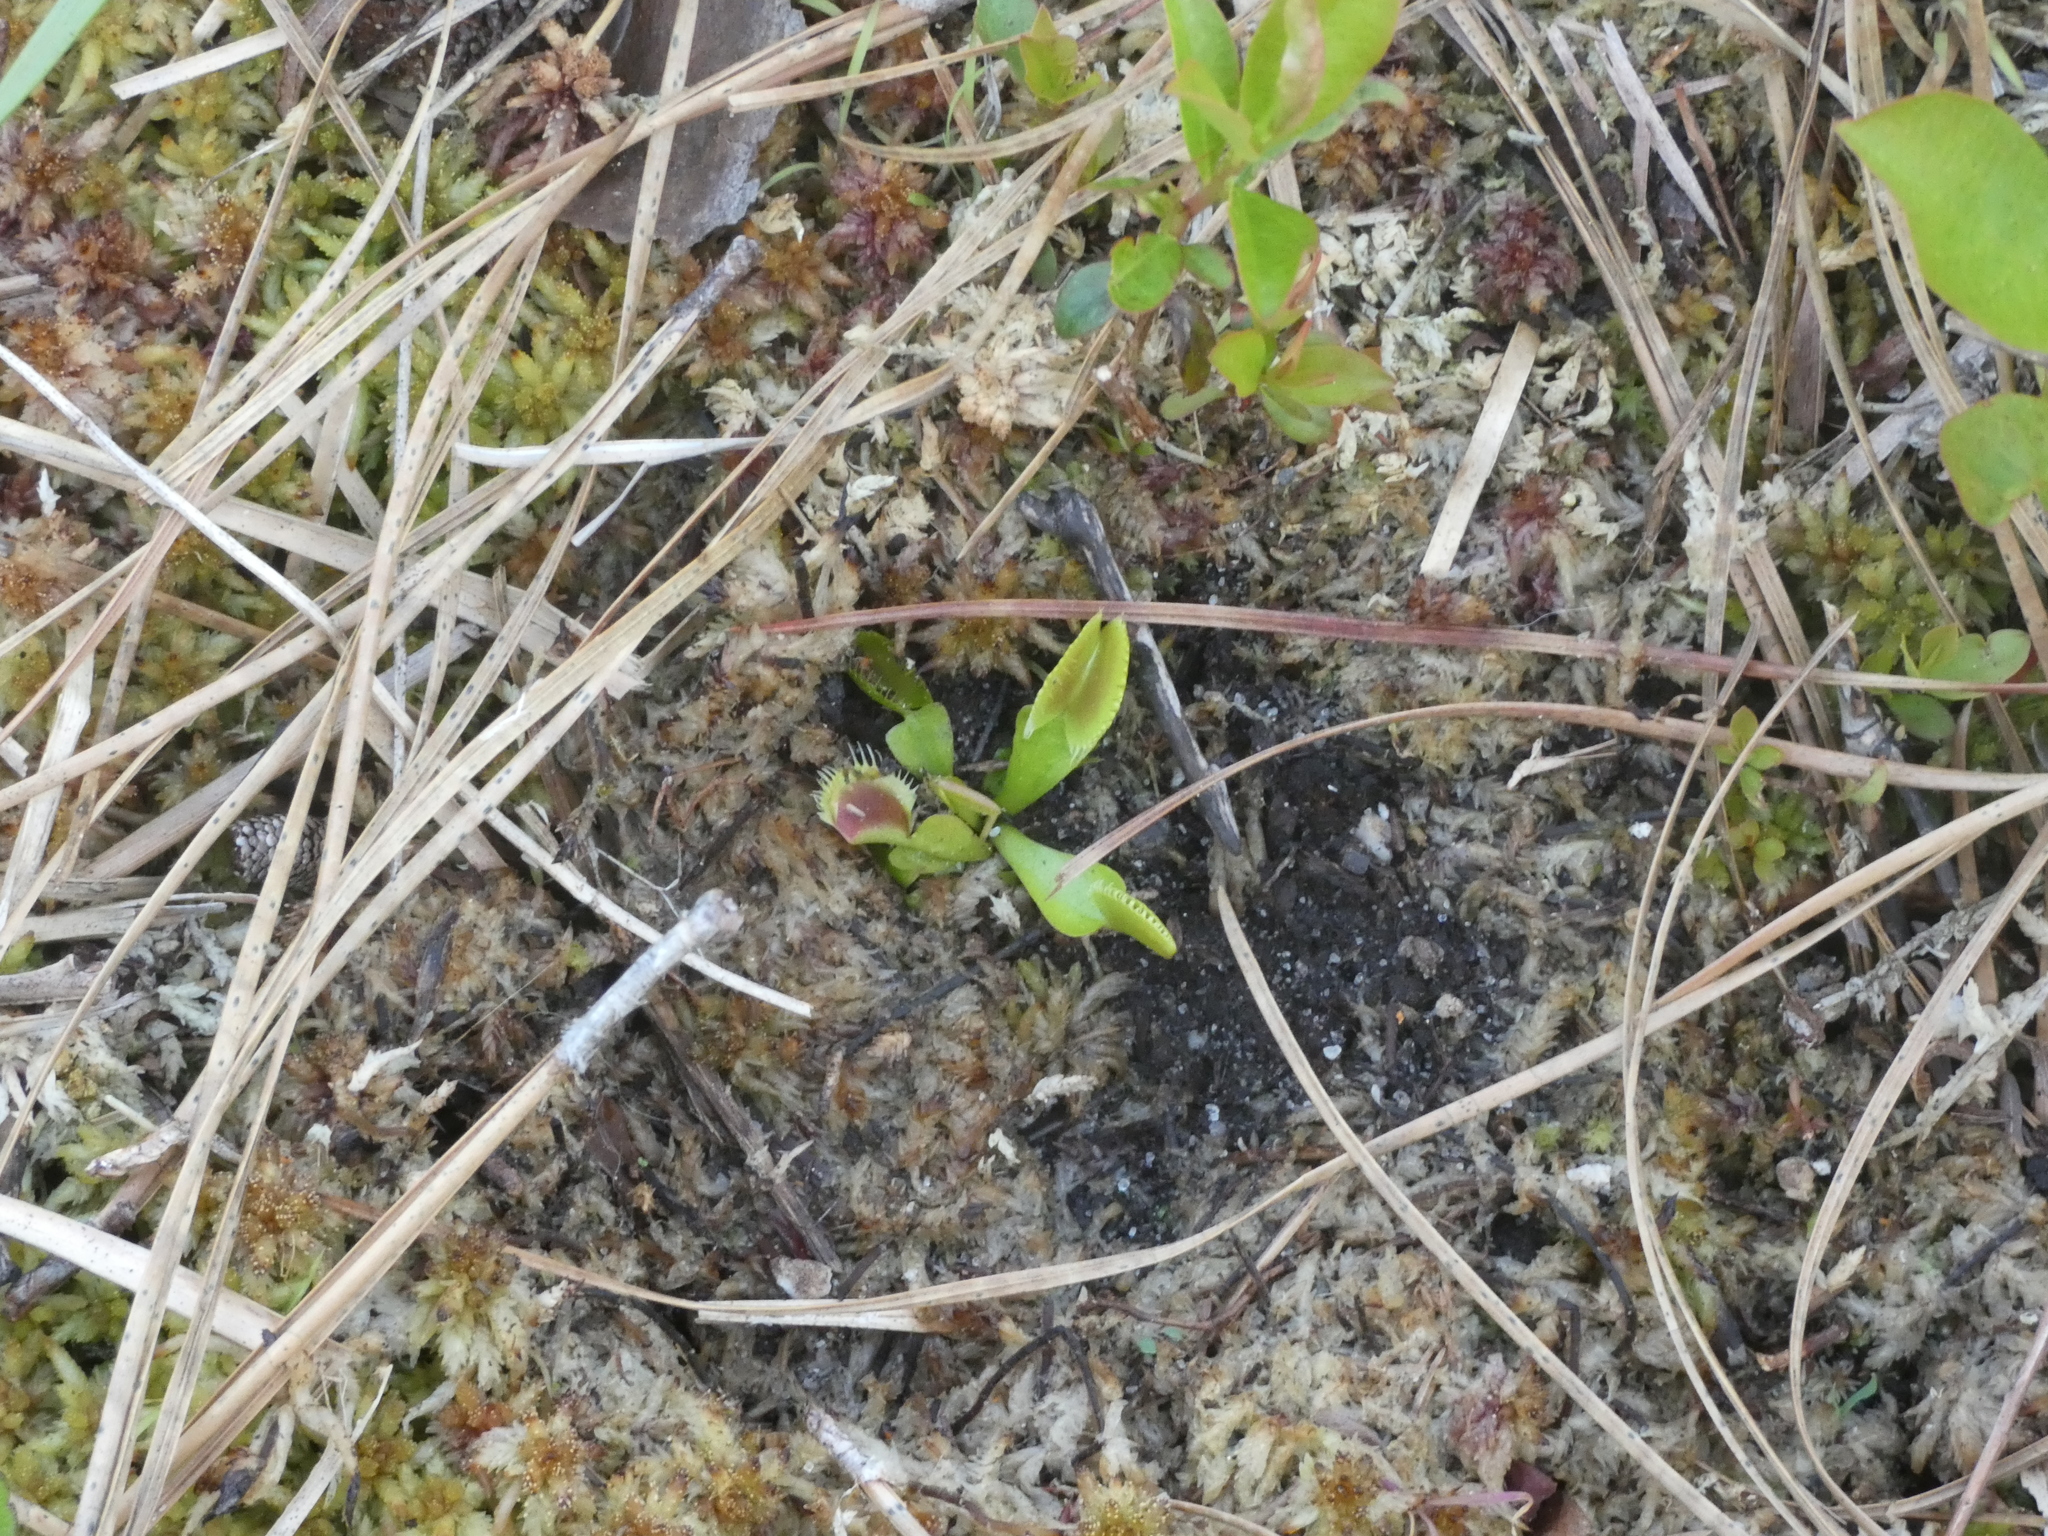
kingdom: Plantae
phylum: Tracheophyta
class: Magnoliopsida
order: Caryophyllales
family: Droseraceae
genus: Dionaea
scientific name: Dionaea muscipula
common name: Venus flytrap
